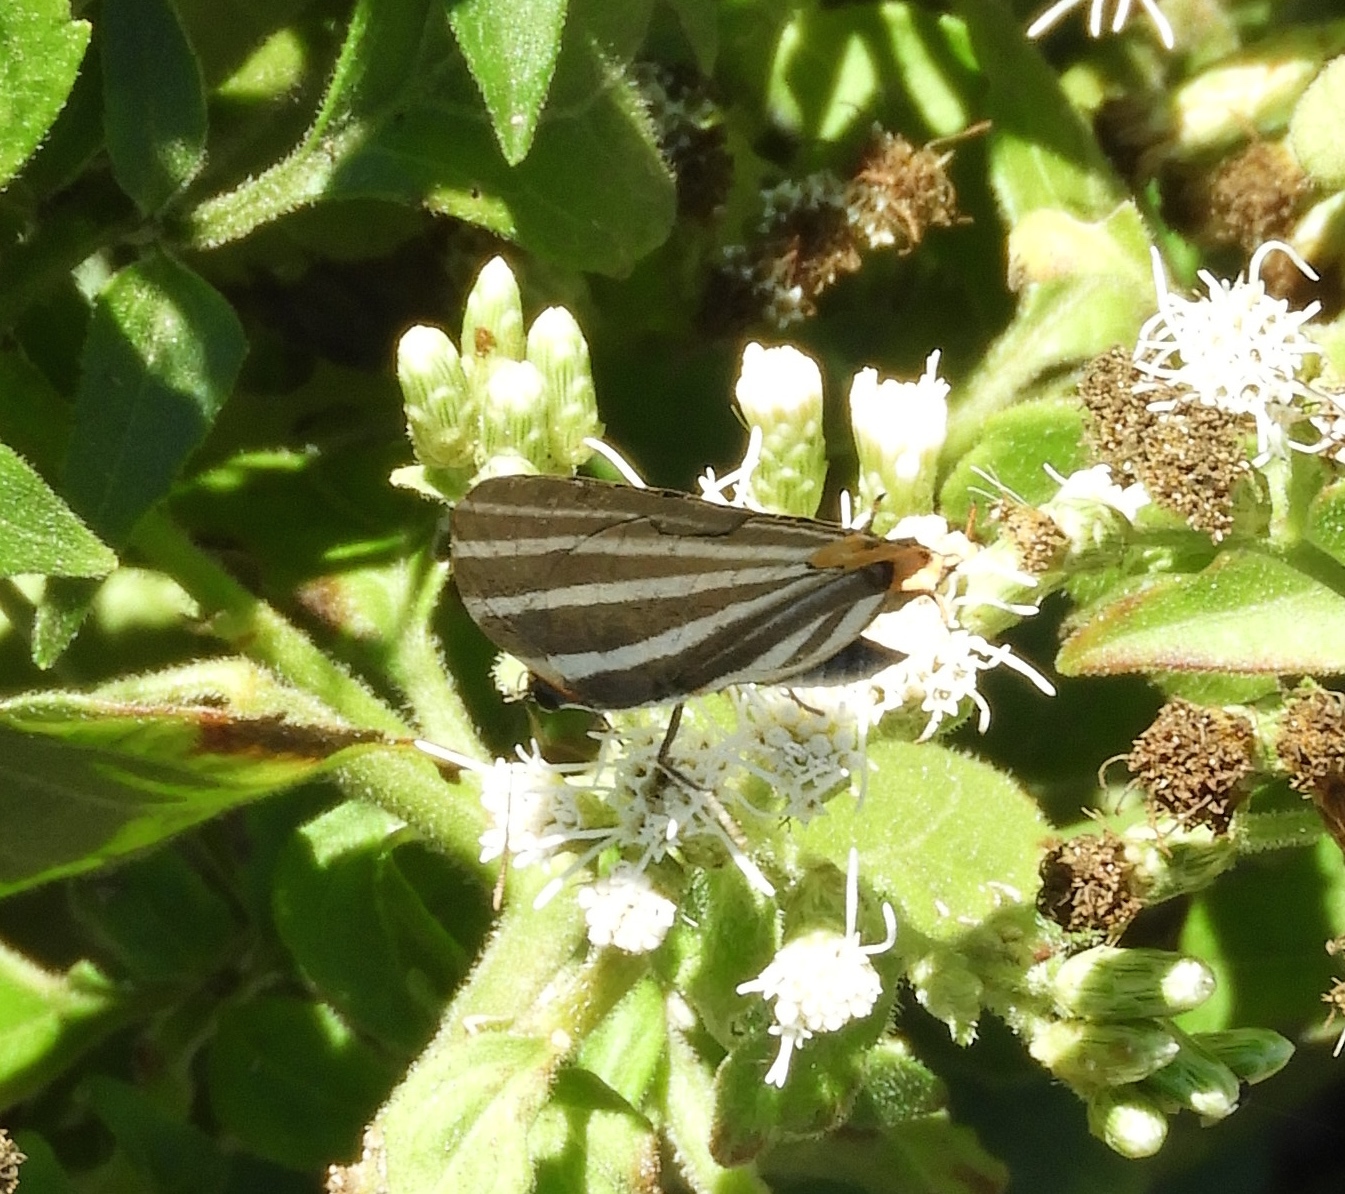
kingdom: Animalia
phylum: Arthropoda
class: Insecta
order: Lepidoptera
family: Lycaenidae
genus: Thecla
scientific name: Thecla bathildis
